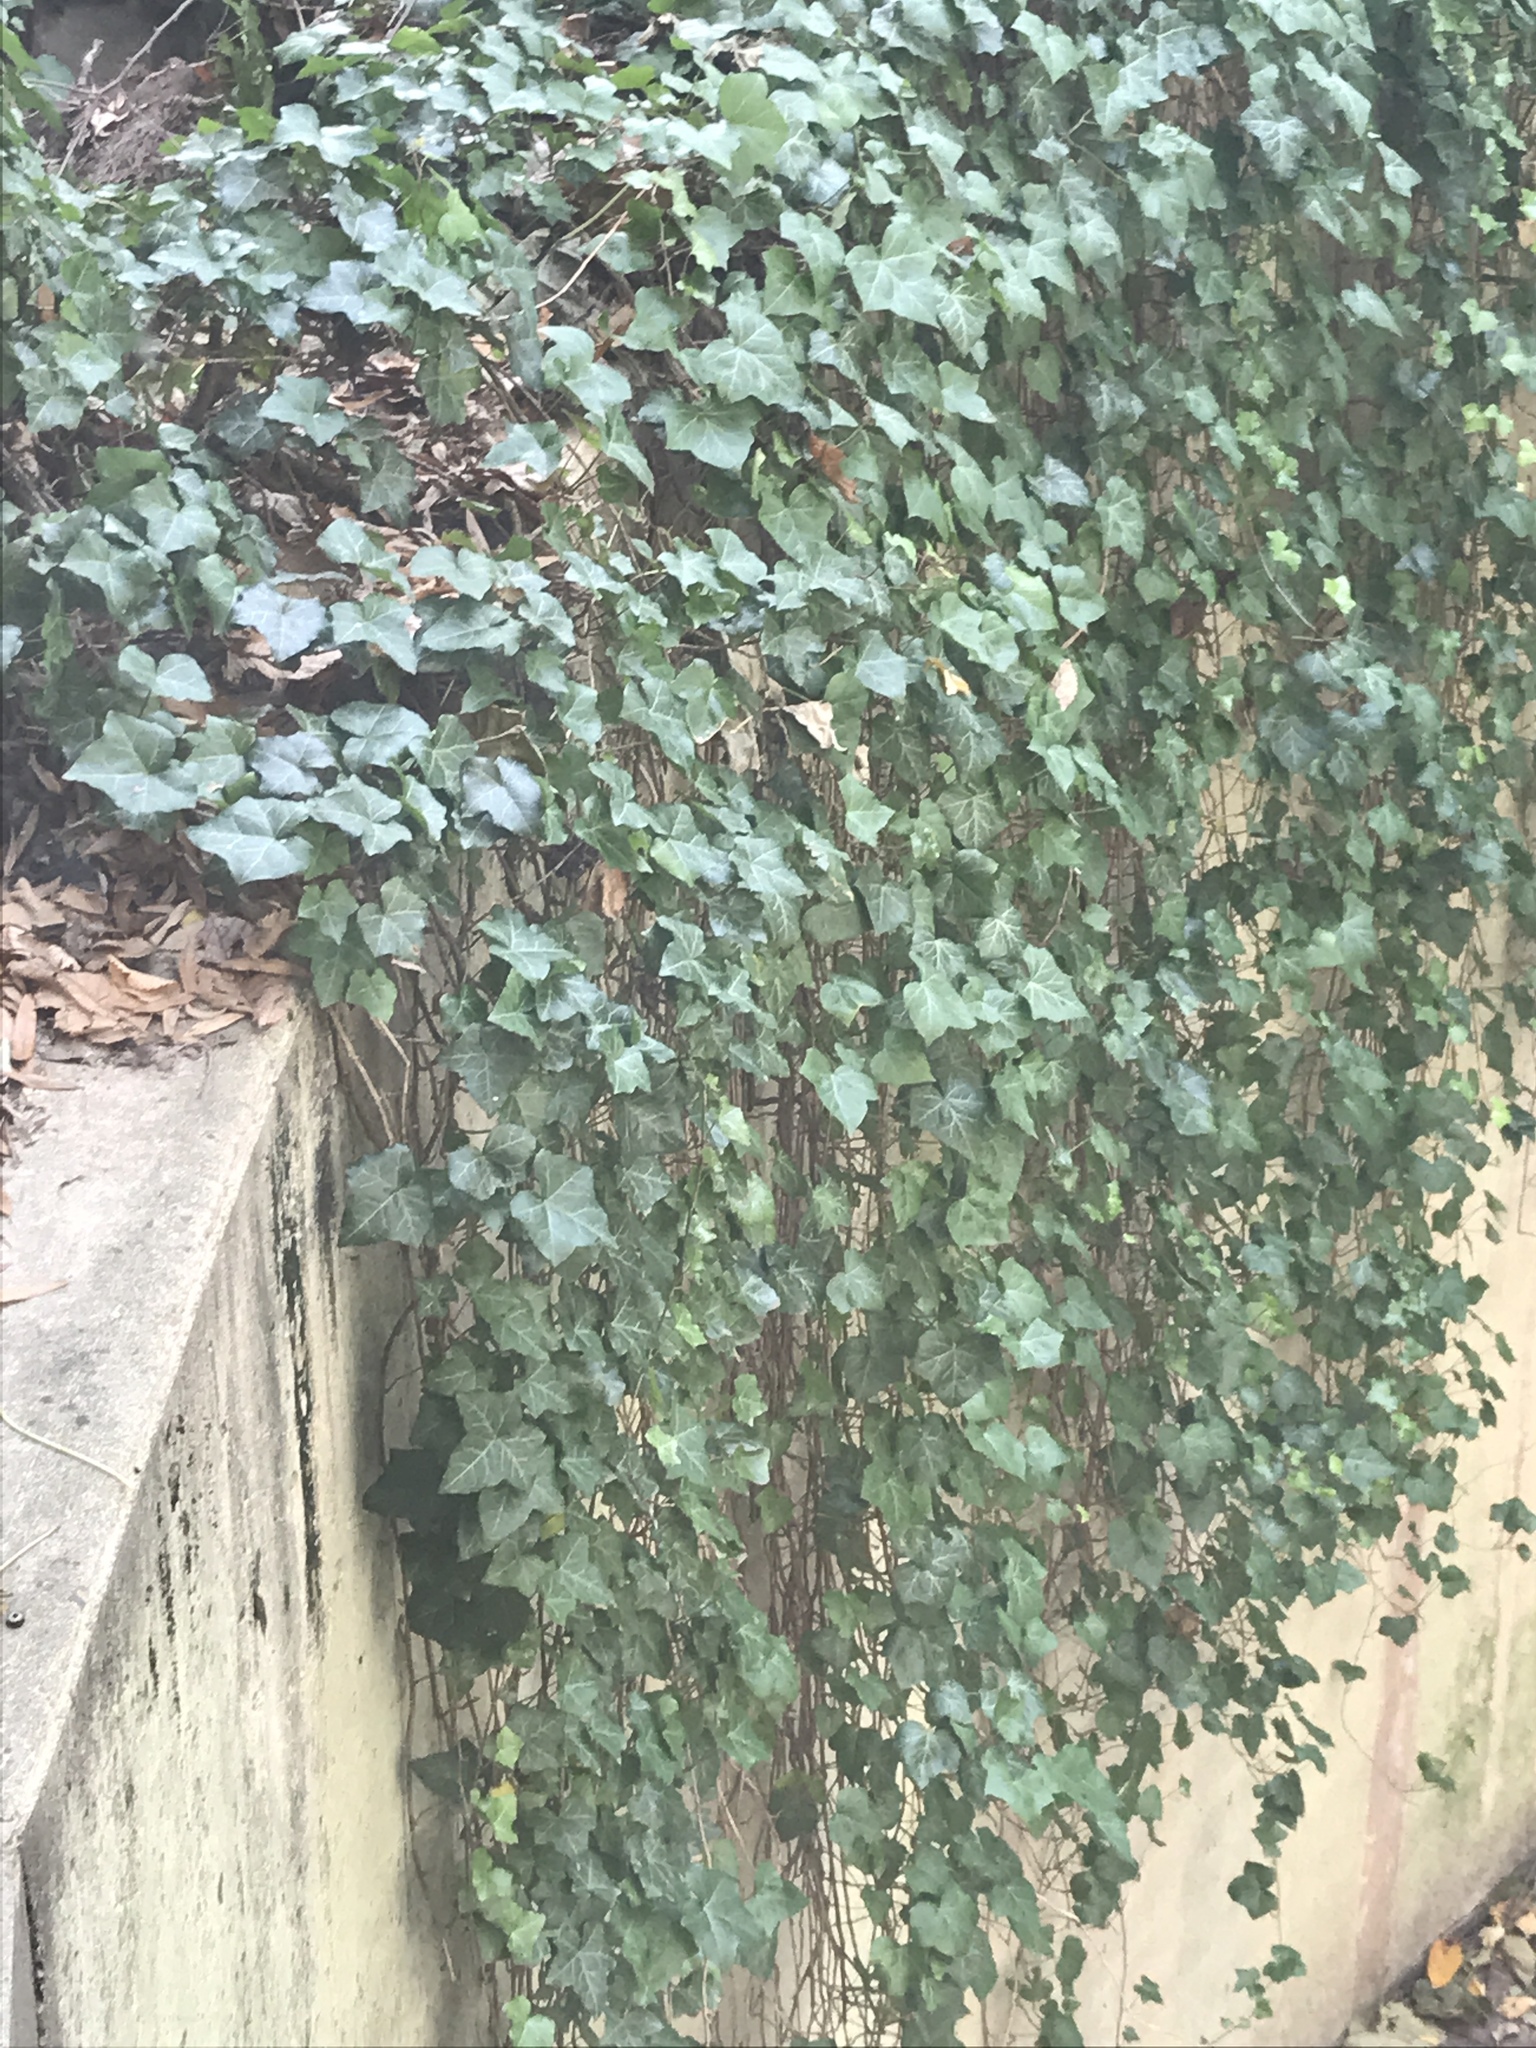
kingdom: Plantae
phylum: Tracheophyta
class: Magnoliopsida
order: Apiales
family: Araliaceae
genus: Hedera
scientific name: Hedera helix
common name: Ivy
